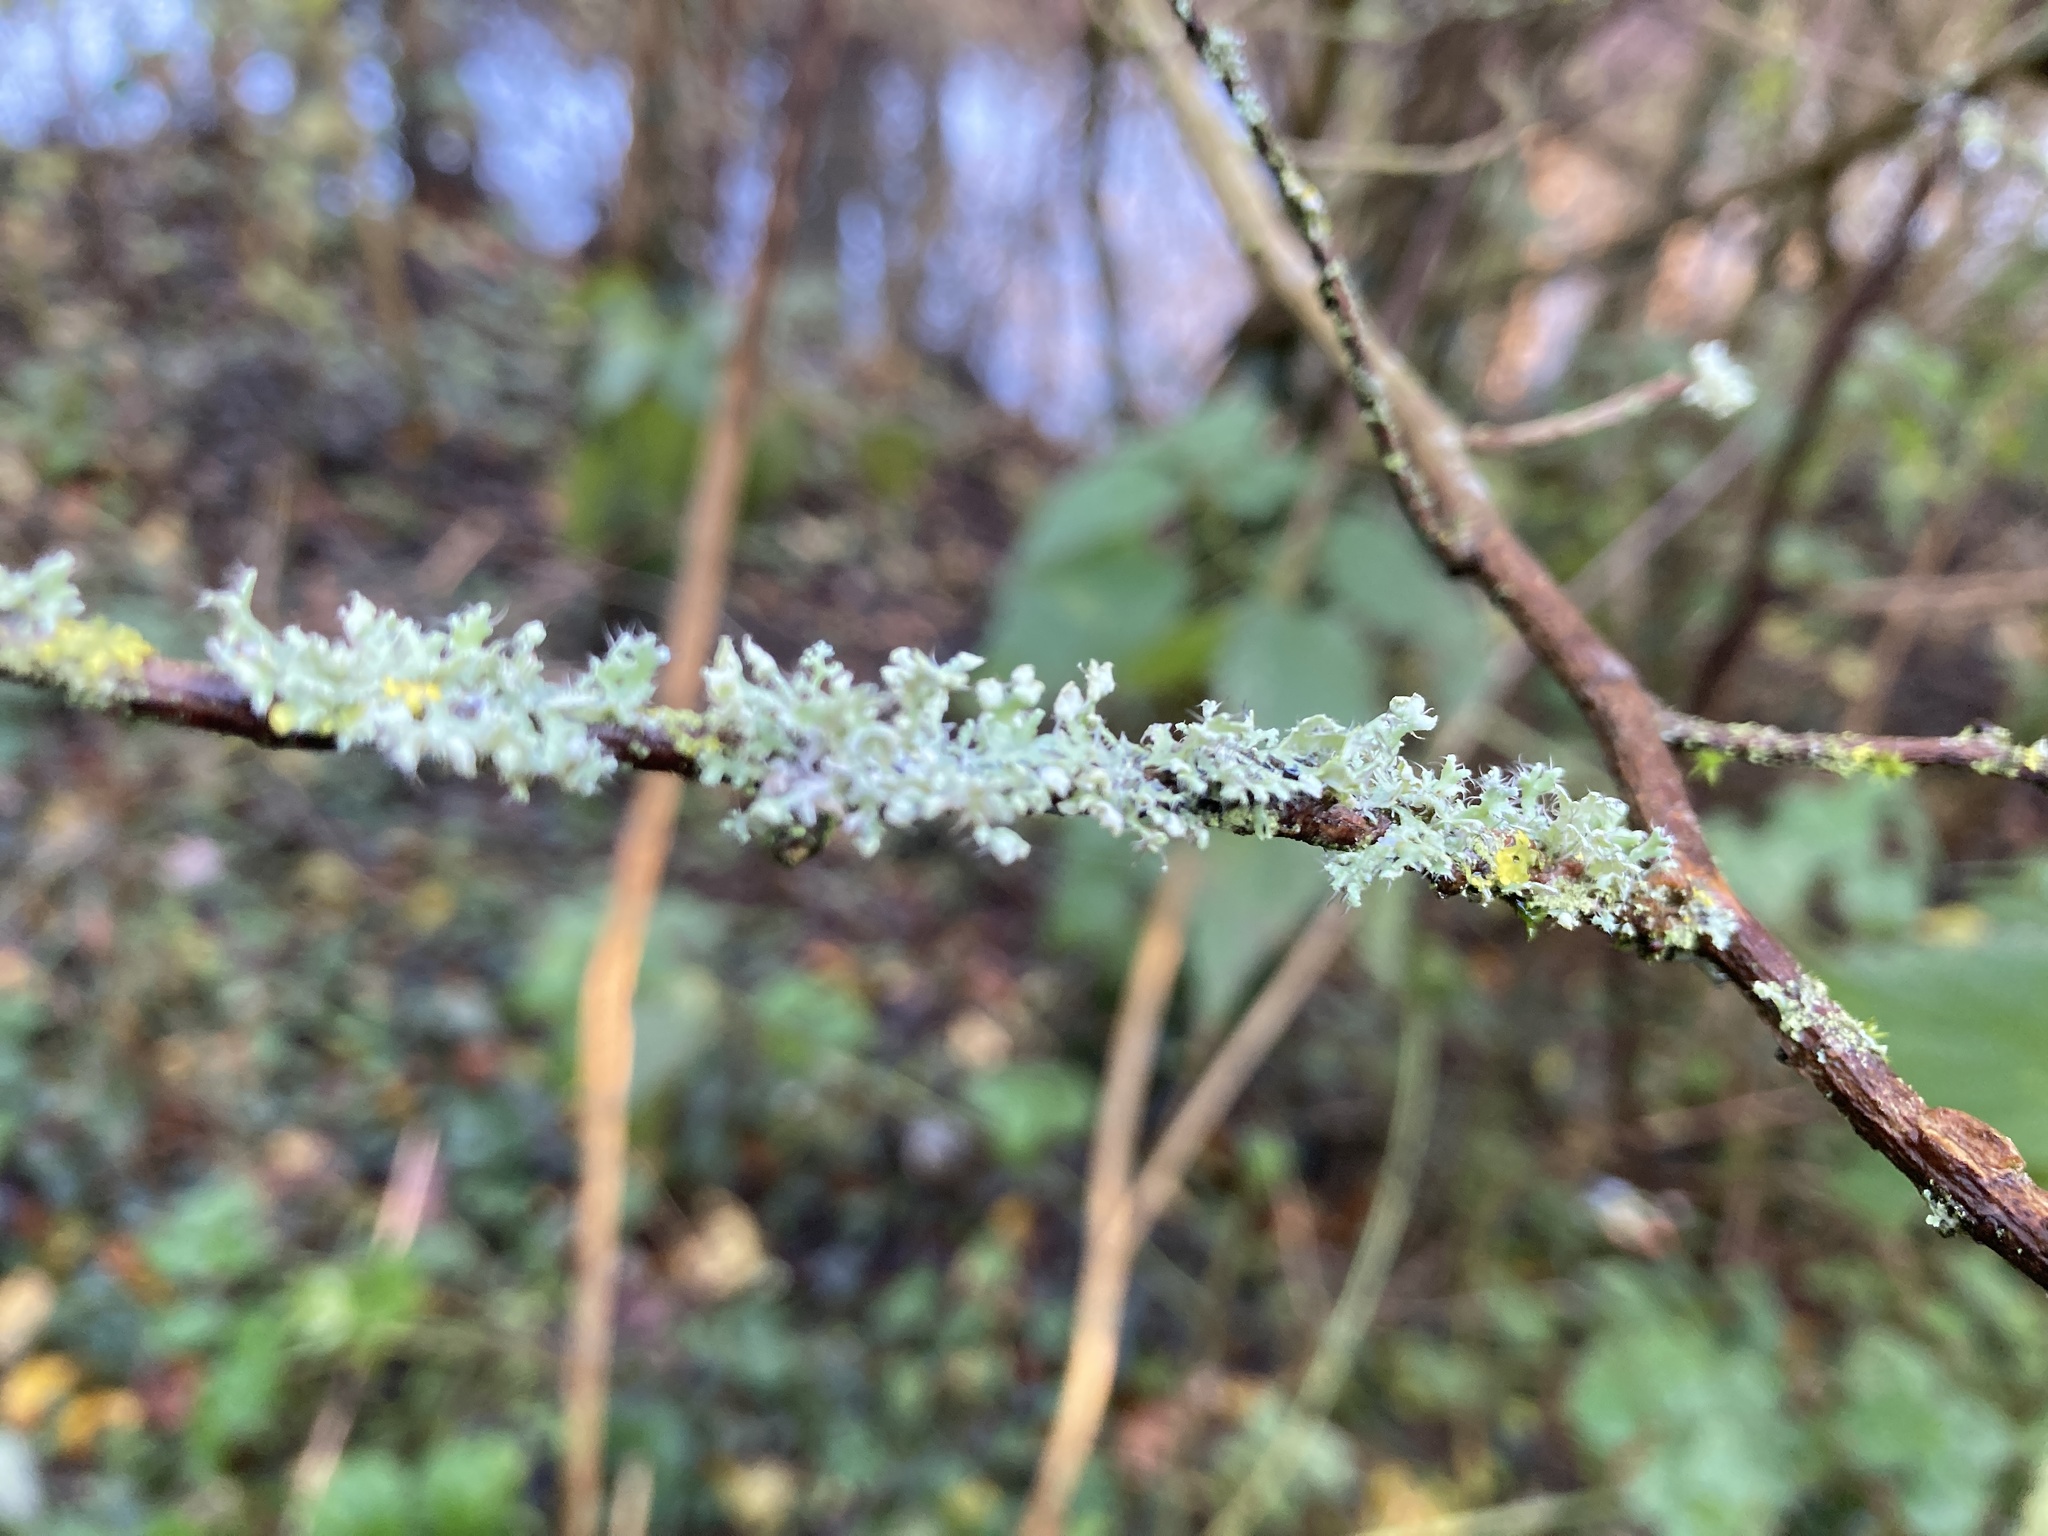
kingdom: Fungi
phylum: Ascomycota
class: Lecanoromycetes
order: Caliciales
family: Physciaceae
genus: Physcia
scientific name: Physcia adscendens
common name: Hooded rosette lichen
